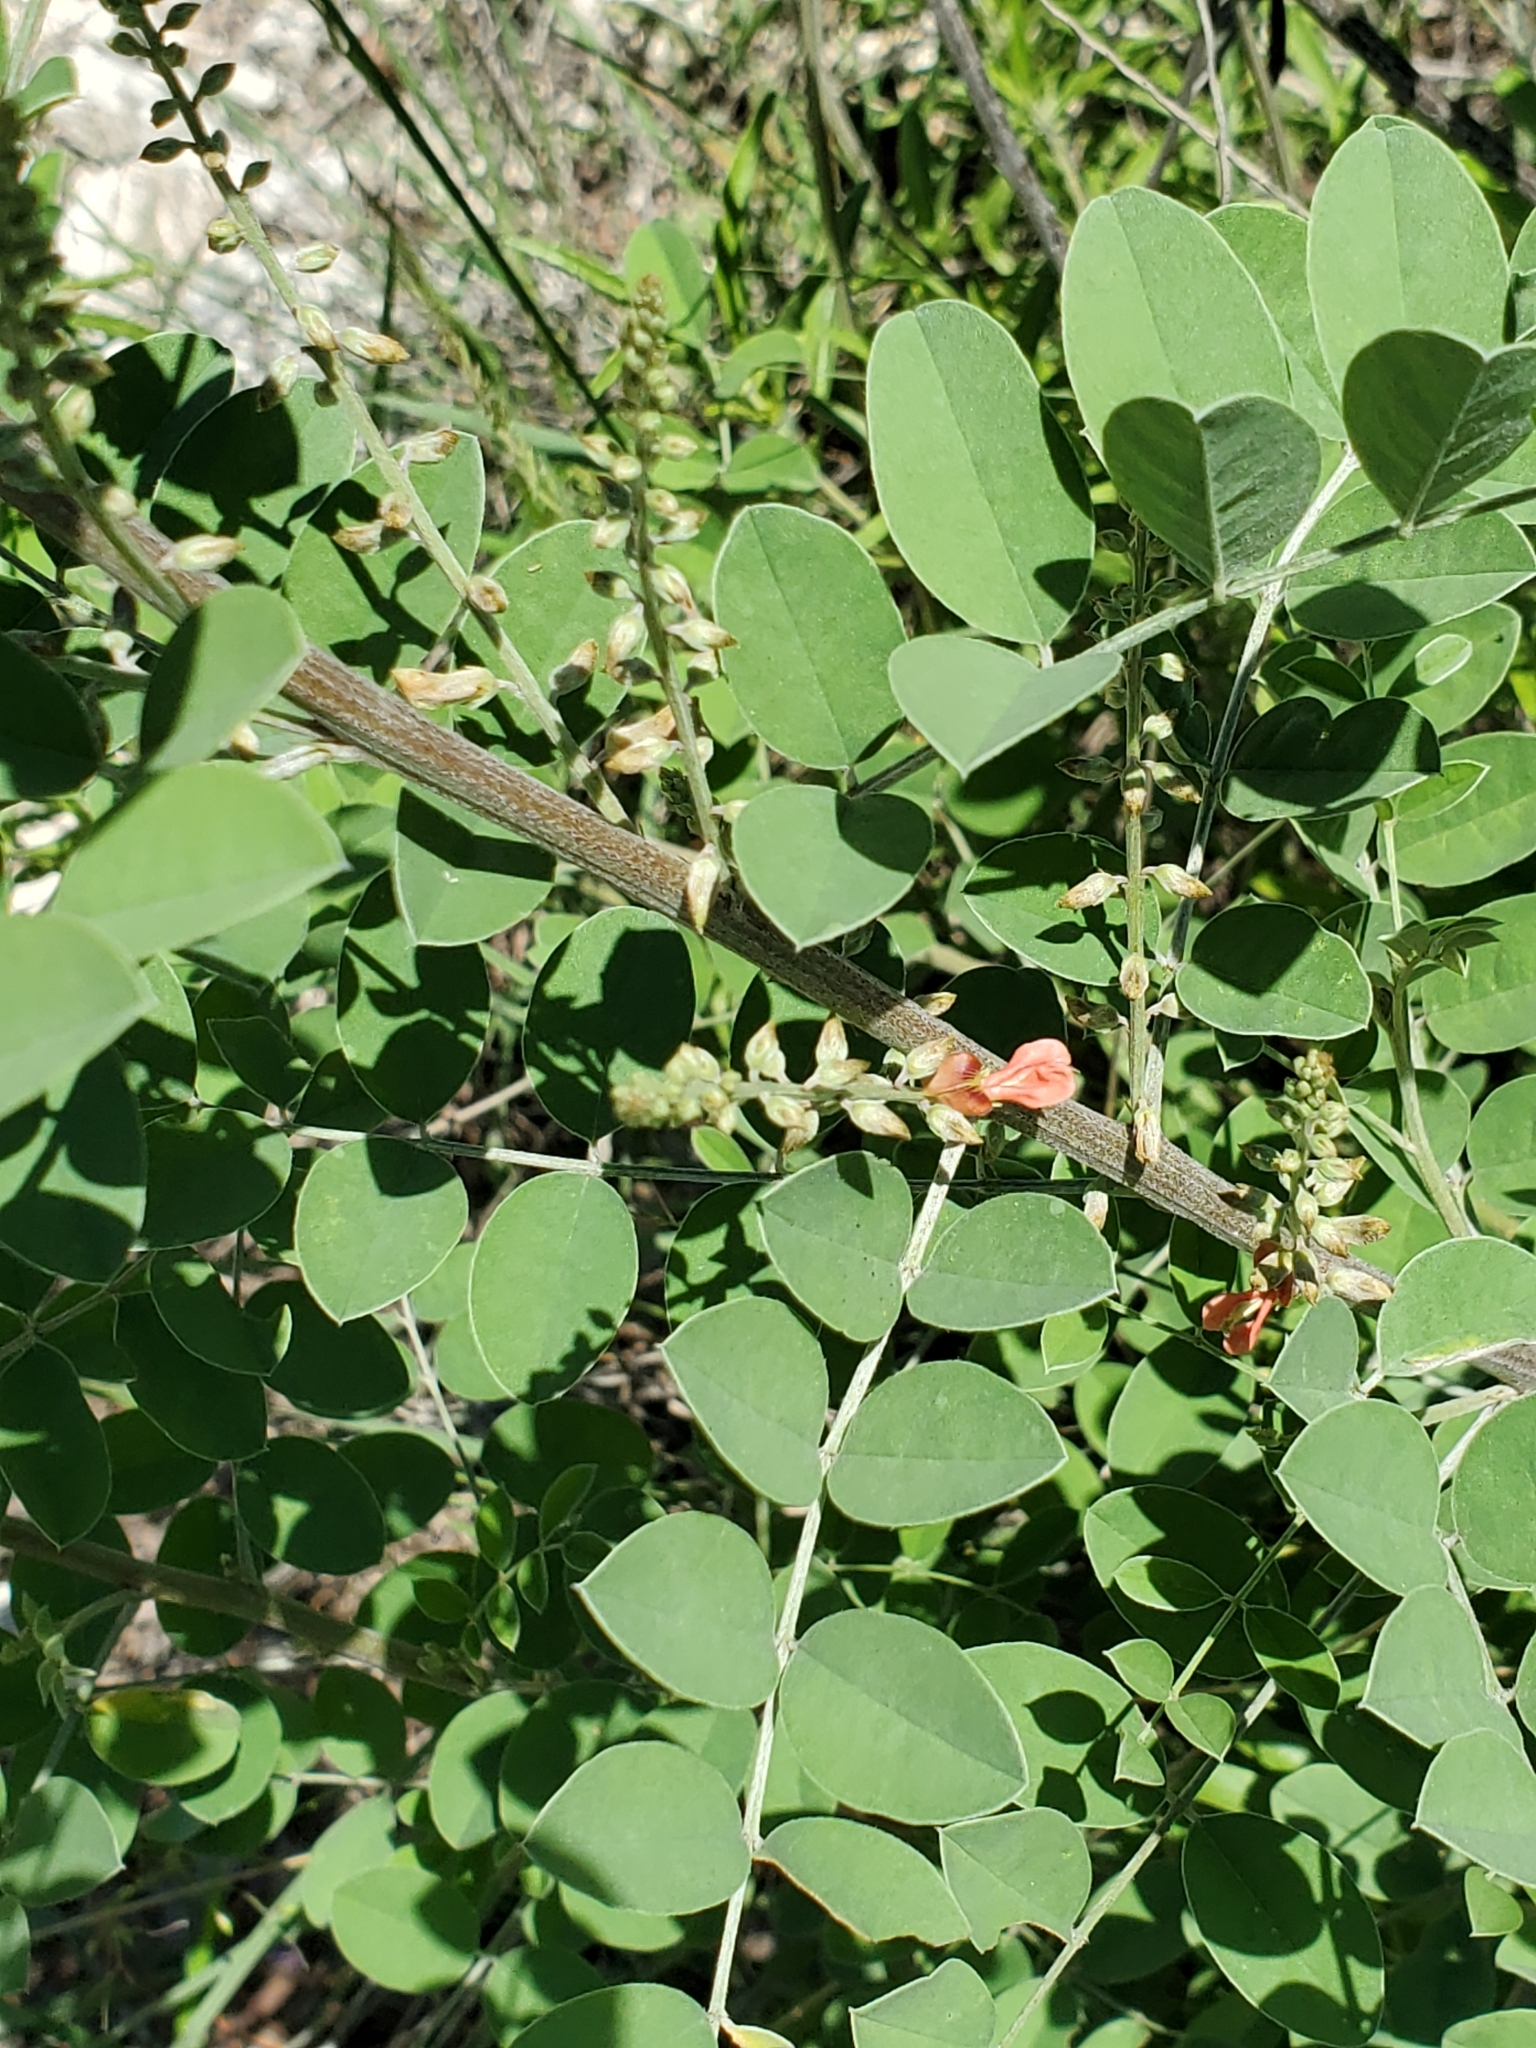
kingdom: Plantae
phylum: Tracheophyta
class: Magnoliopsida
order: Fabales
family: Fabaceae
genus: Indigofera
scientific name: Indigofera lindheimeriana
